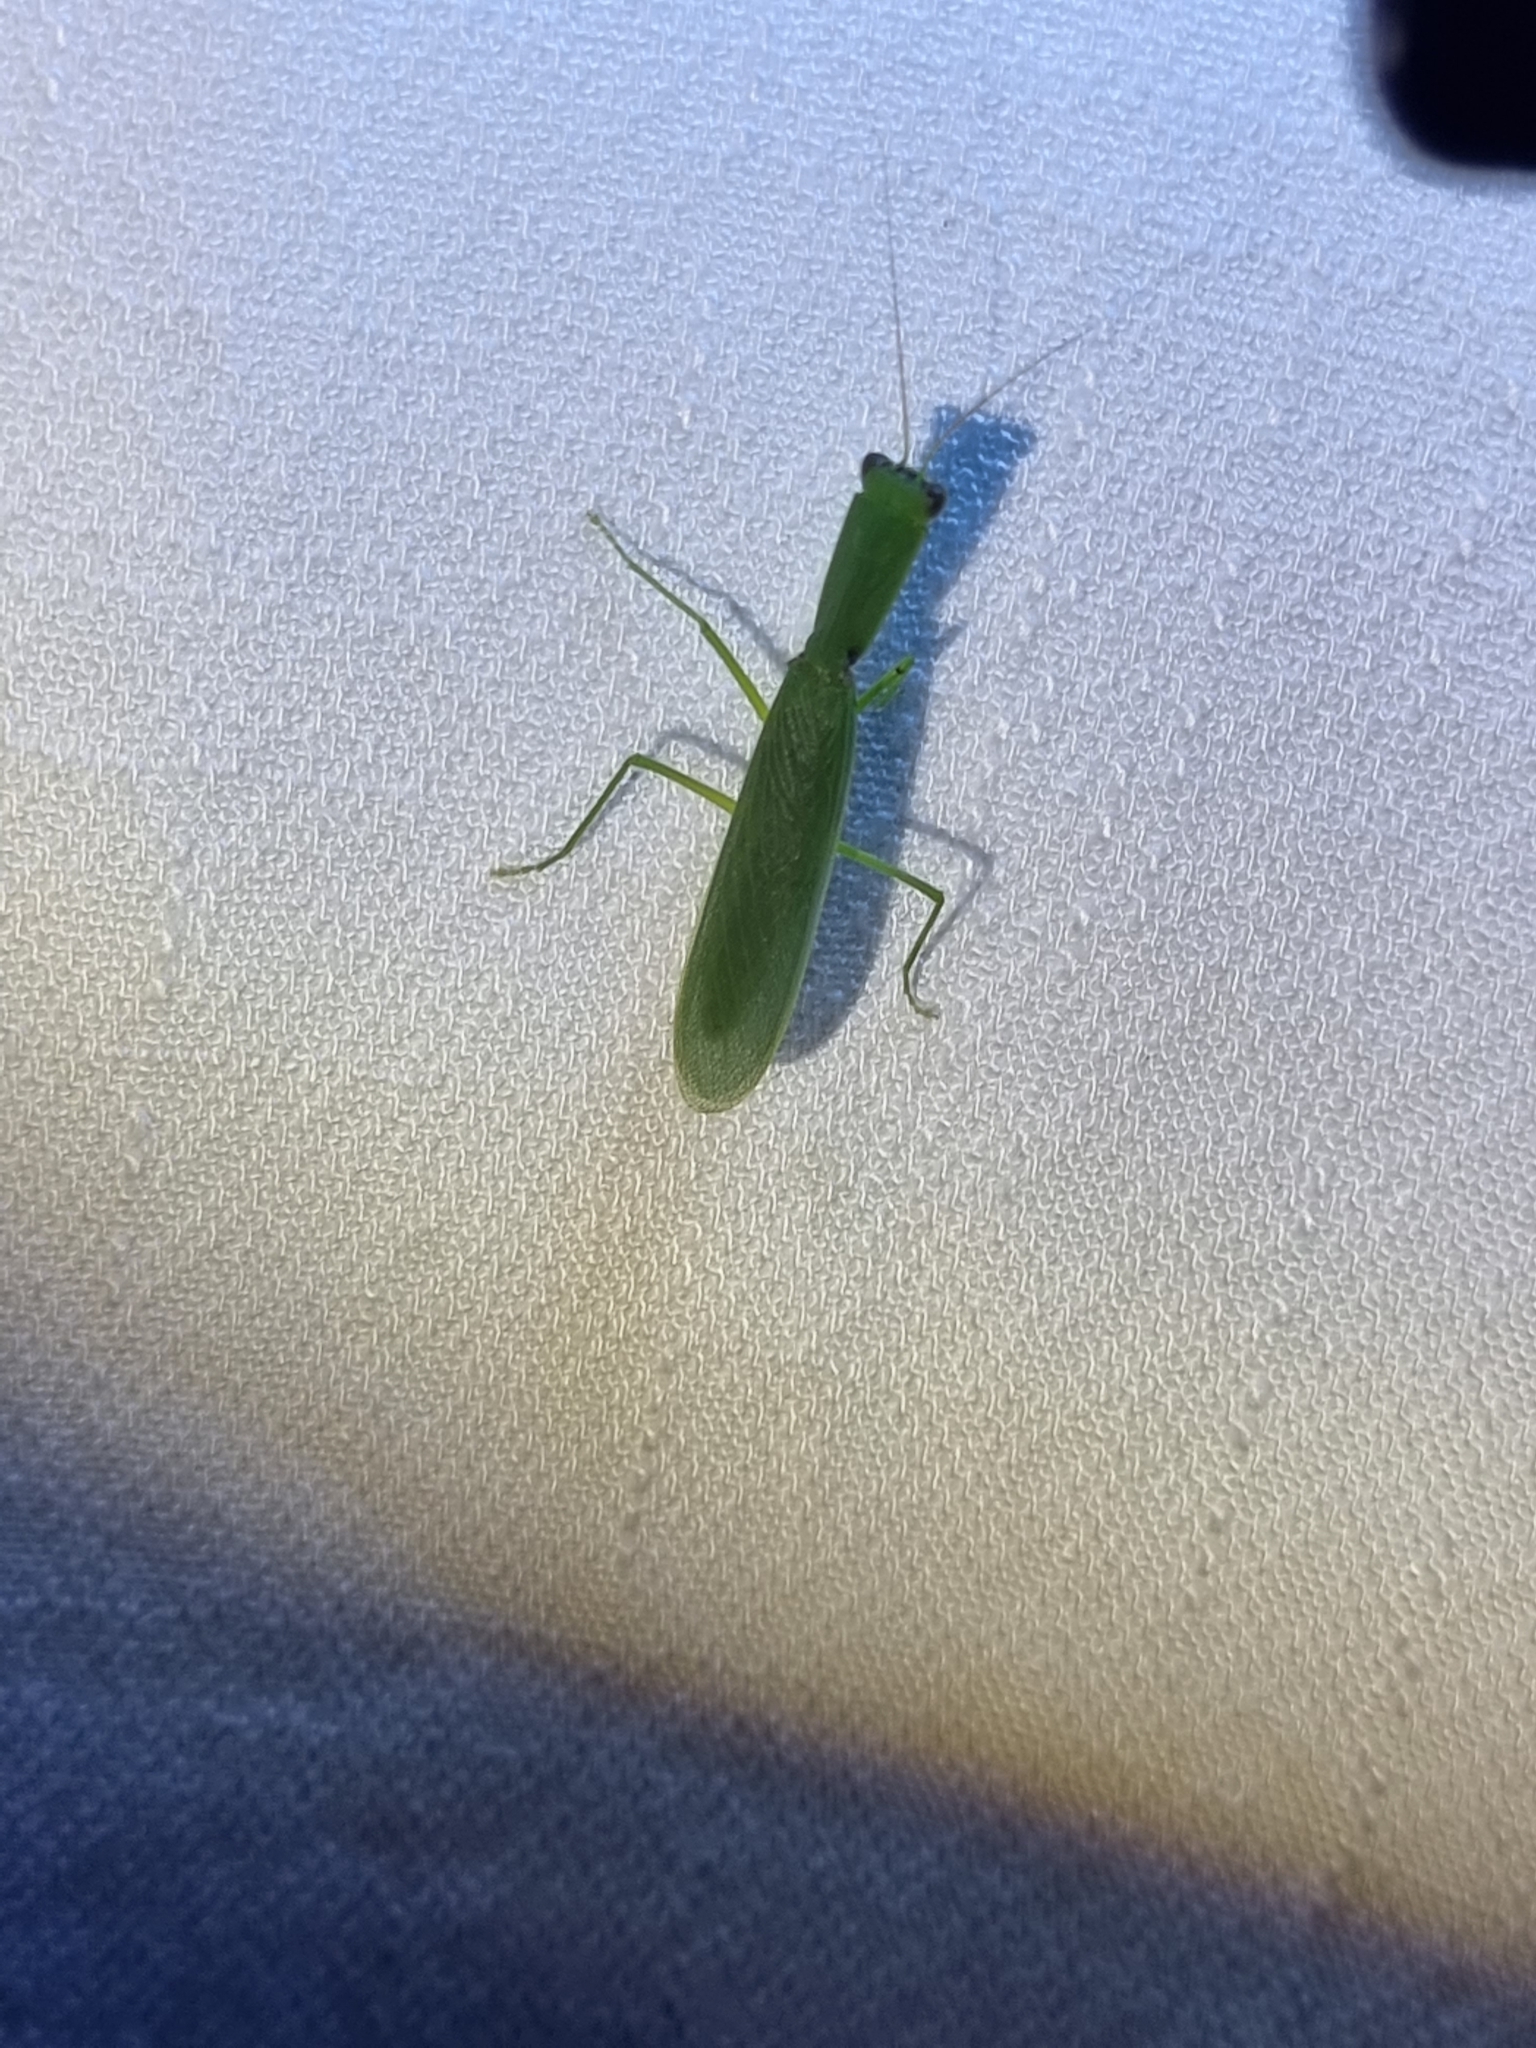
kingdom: Animalia
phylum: Arthropoda
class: Insecta
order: Mantodea
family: Mantidae
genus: Orthodera
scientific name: Orthodera ministralis
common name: Mantis
